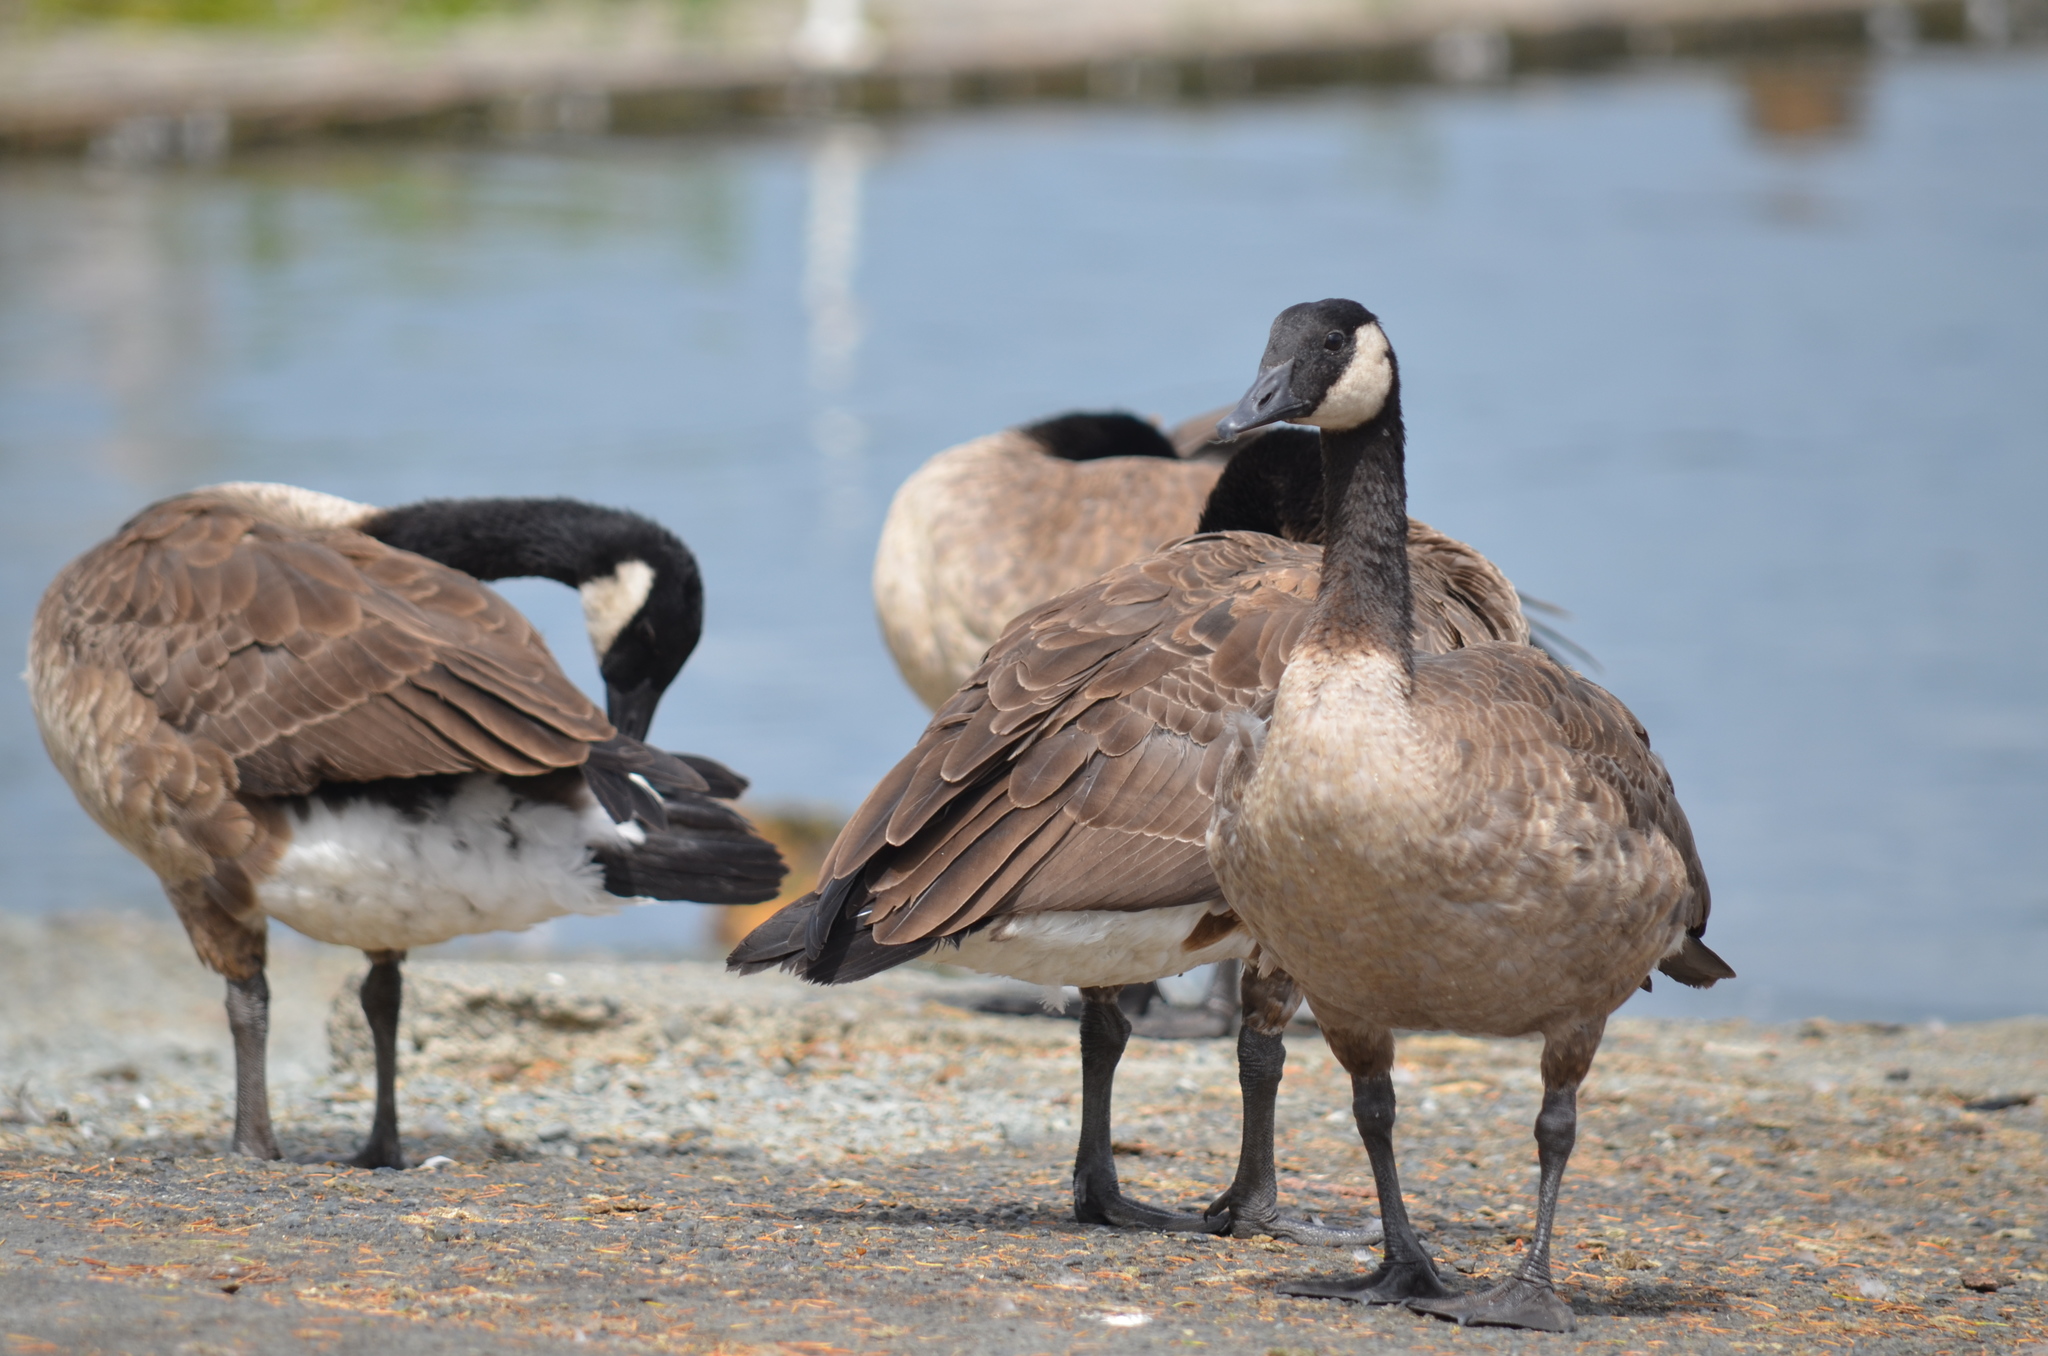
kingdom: Animalia
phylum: Chordata
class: Aves
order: Anseriformes
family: Anatidae
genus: Branta
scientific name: Branta canadensis
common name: Canada goose
